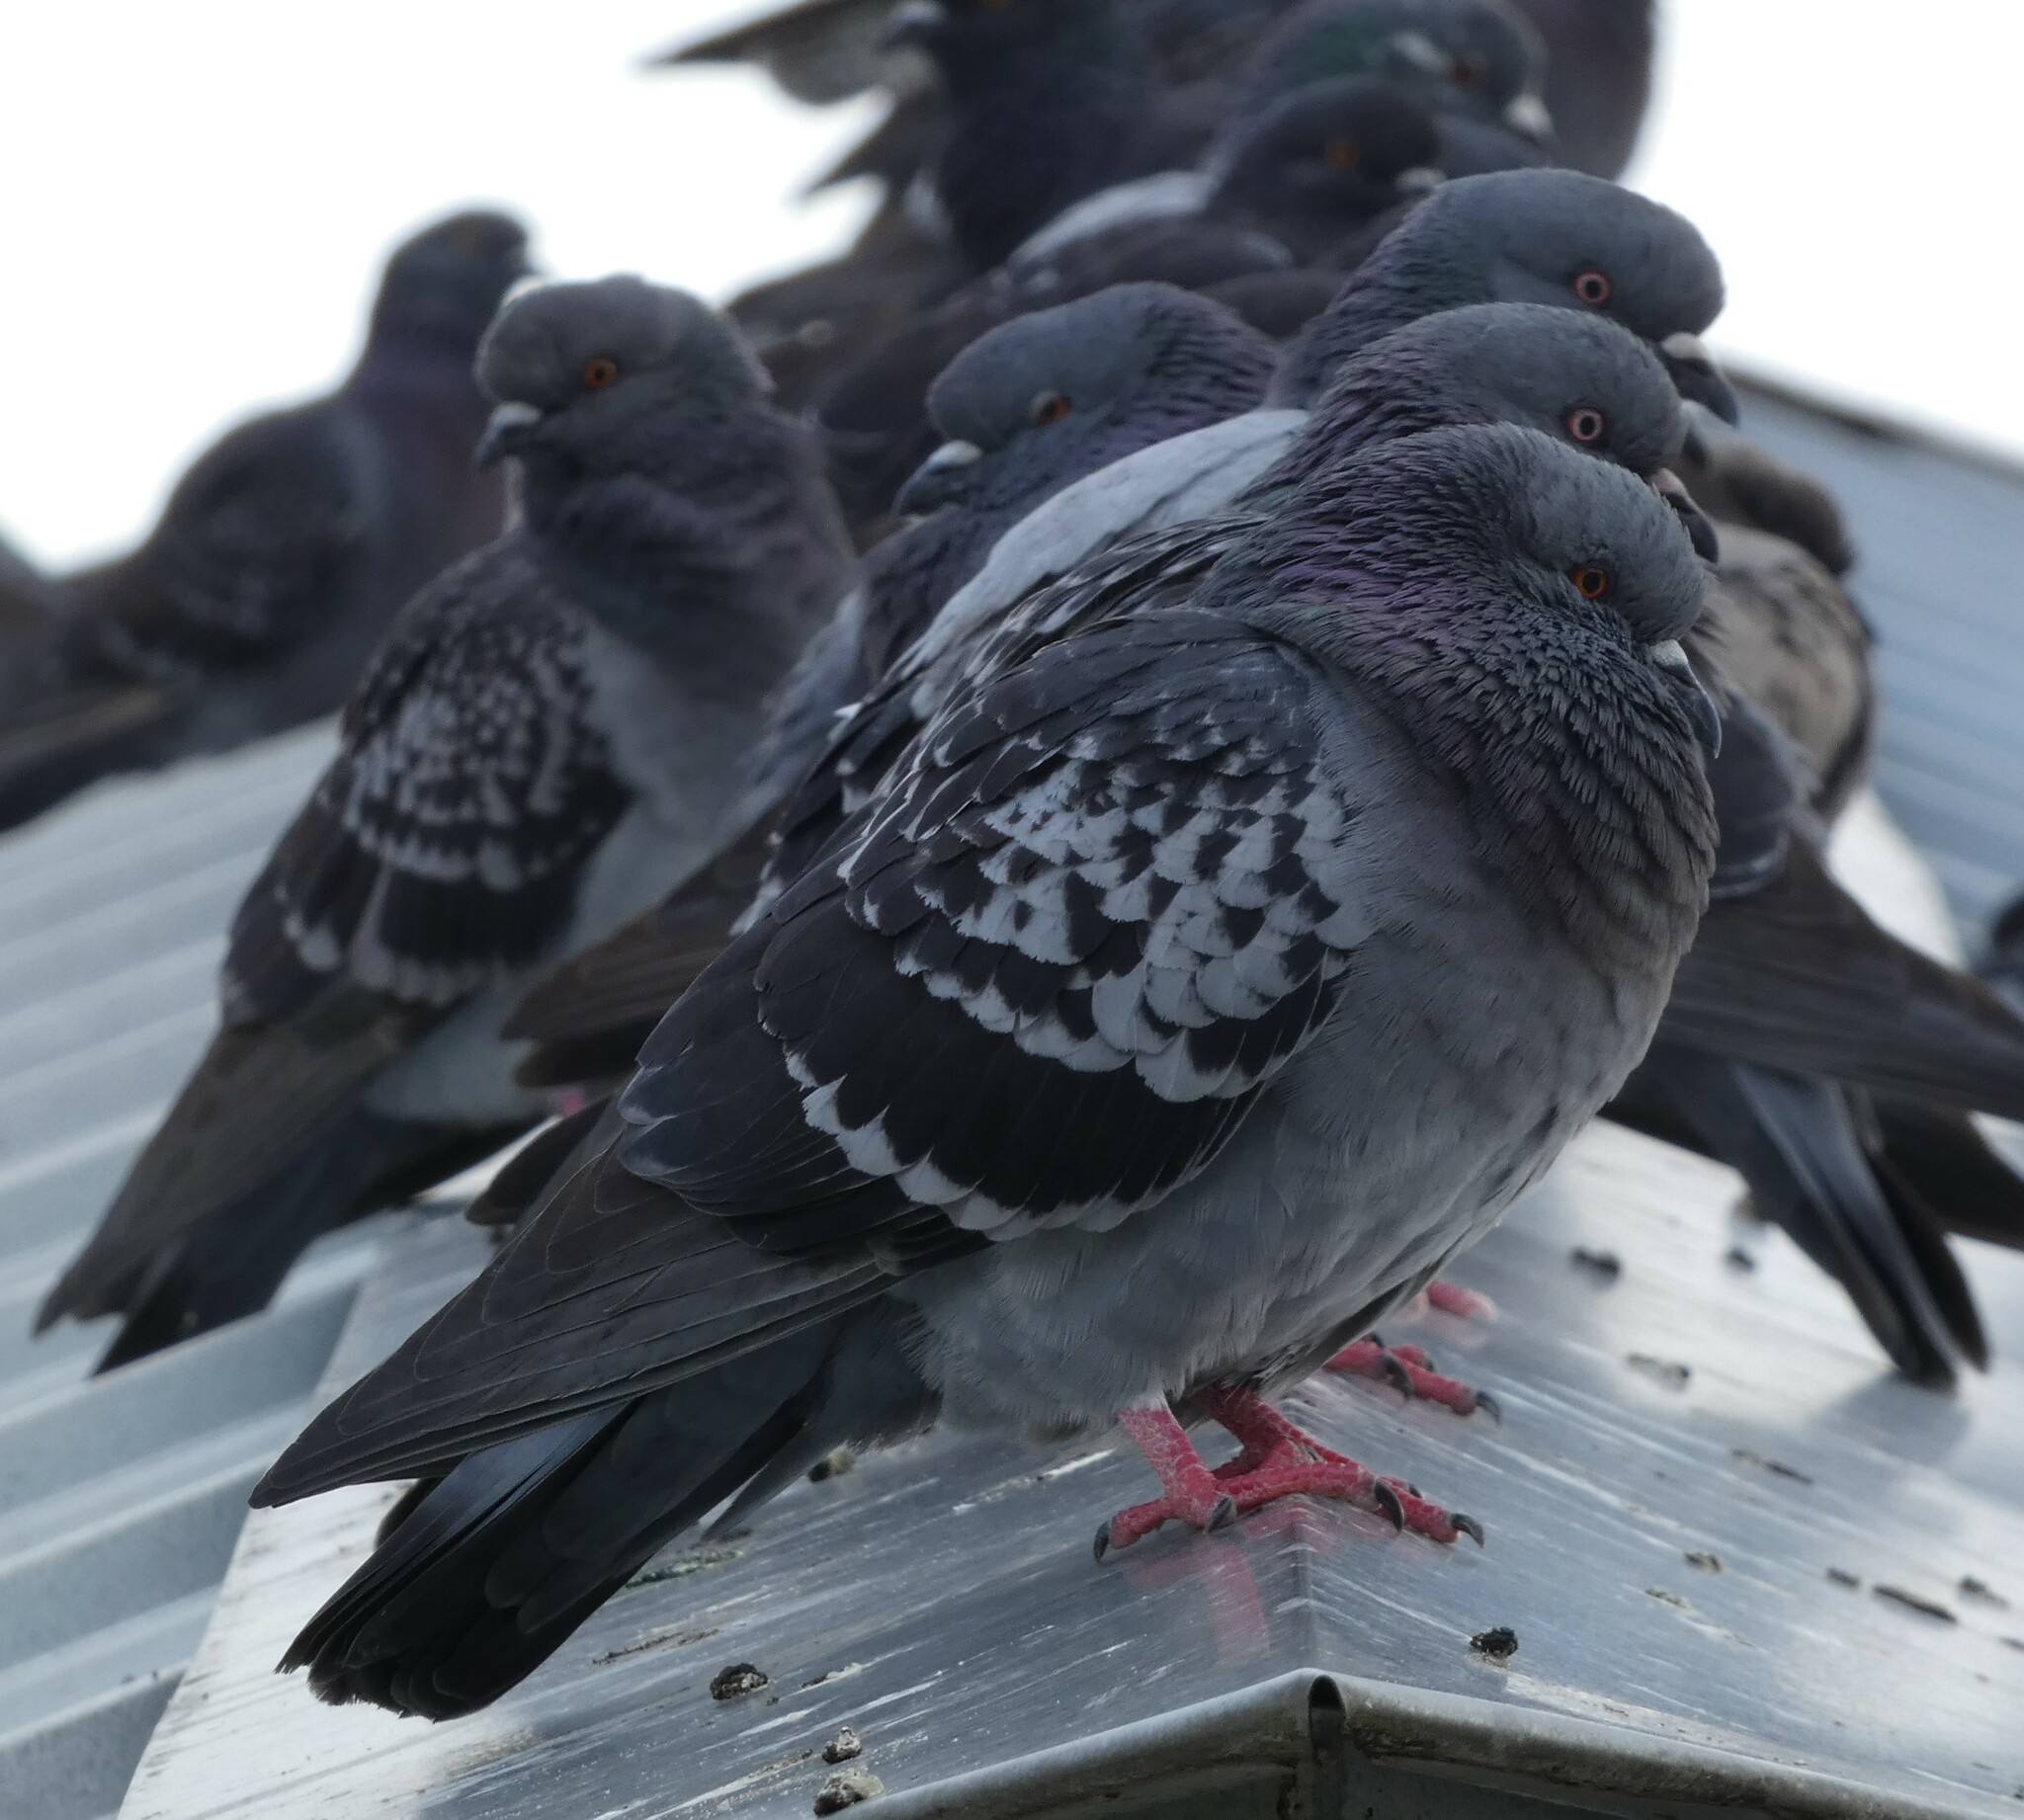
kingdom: Animalia
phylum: Chordata
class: Aves
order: Columbiformes
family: Columbidae
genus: Columba
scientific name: Columba livia
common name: Rock pigeon
